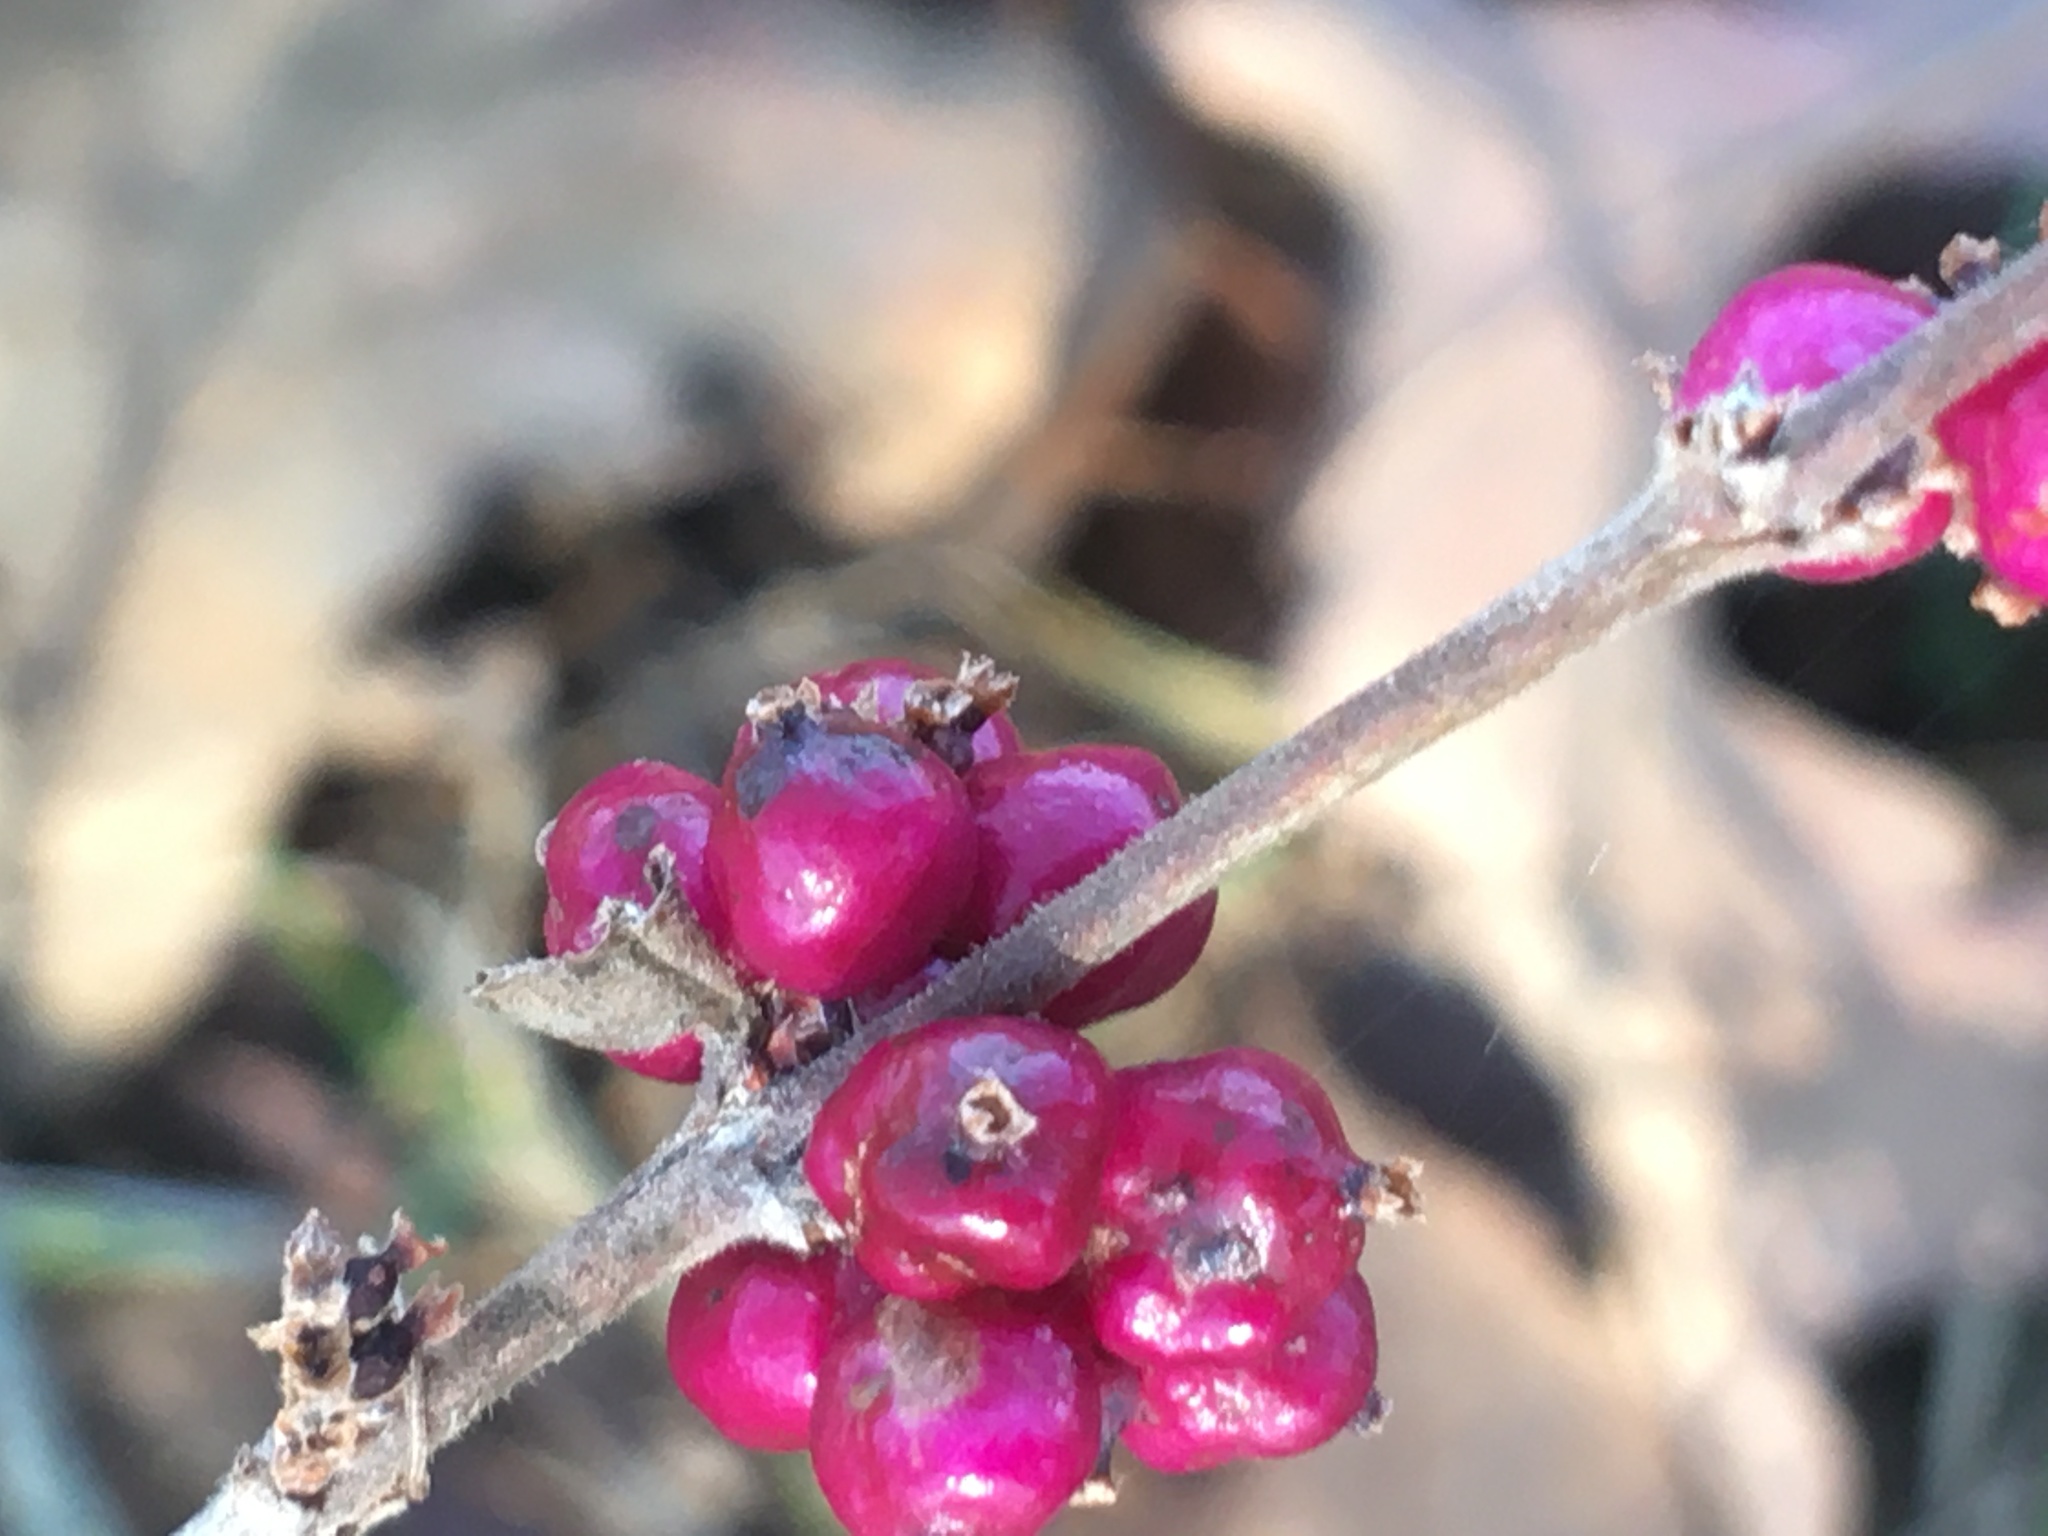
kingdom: Plantae
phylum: Tracheophyta
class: Magnoliopsida
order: Dipsacales
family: Caprifoliaceae
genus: Symphoricarpos
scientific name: Symphoricarpos orbiculatus
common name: Coralberry
